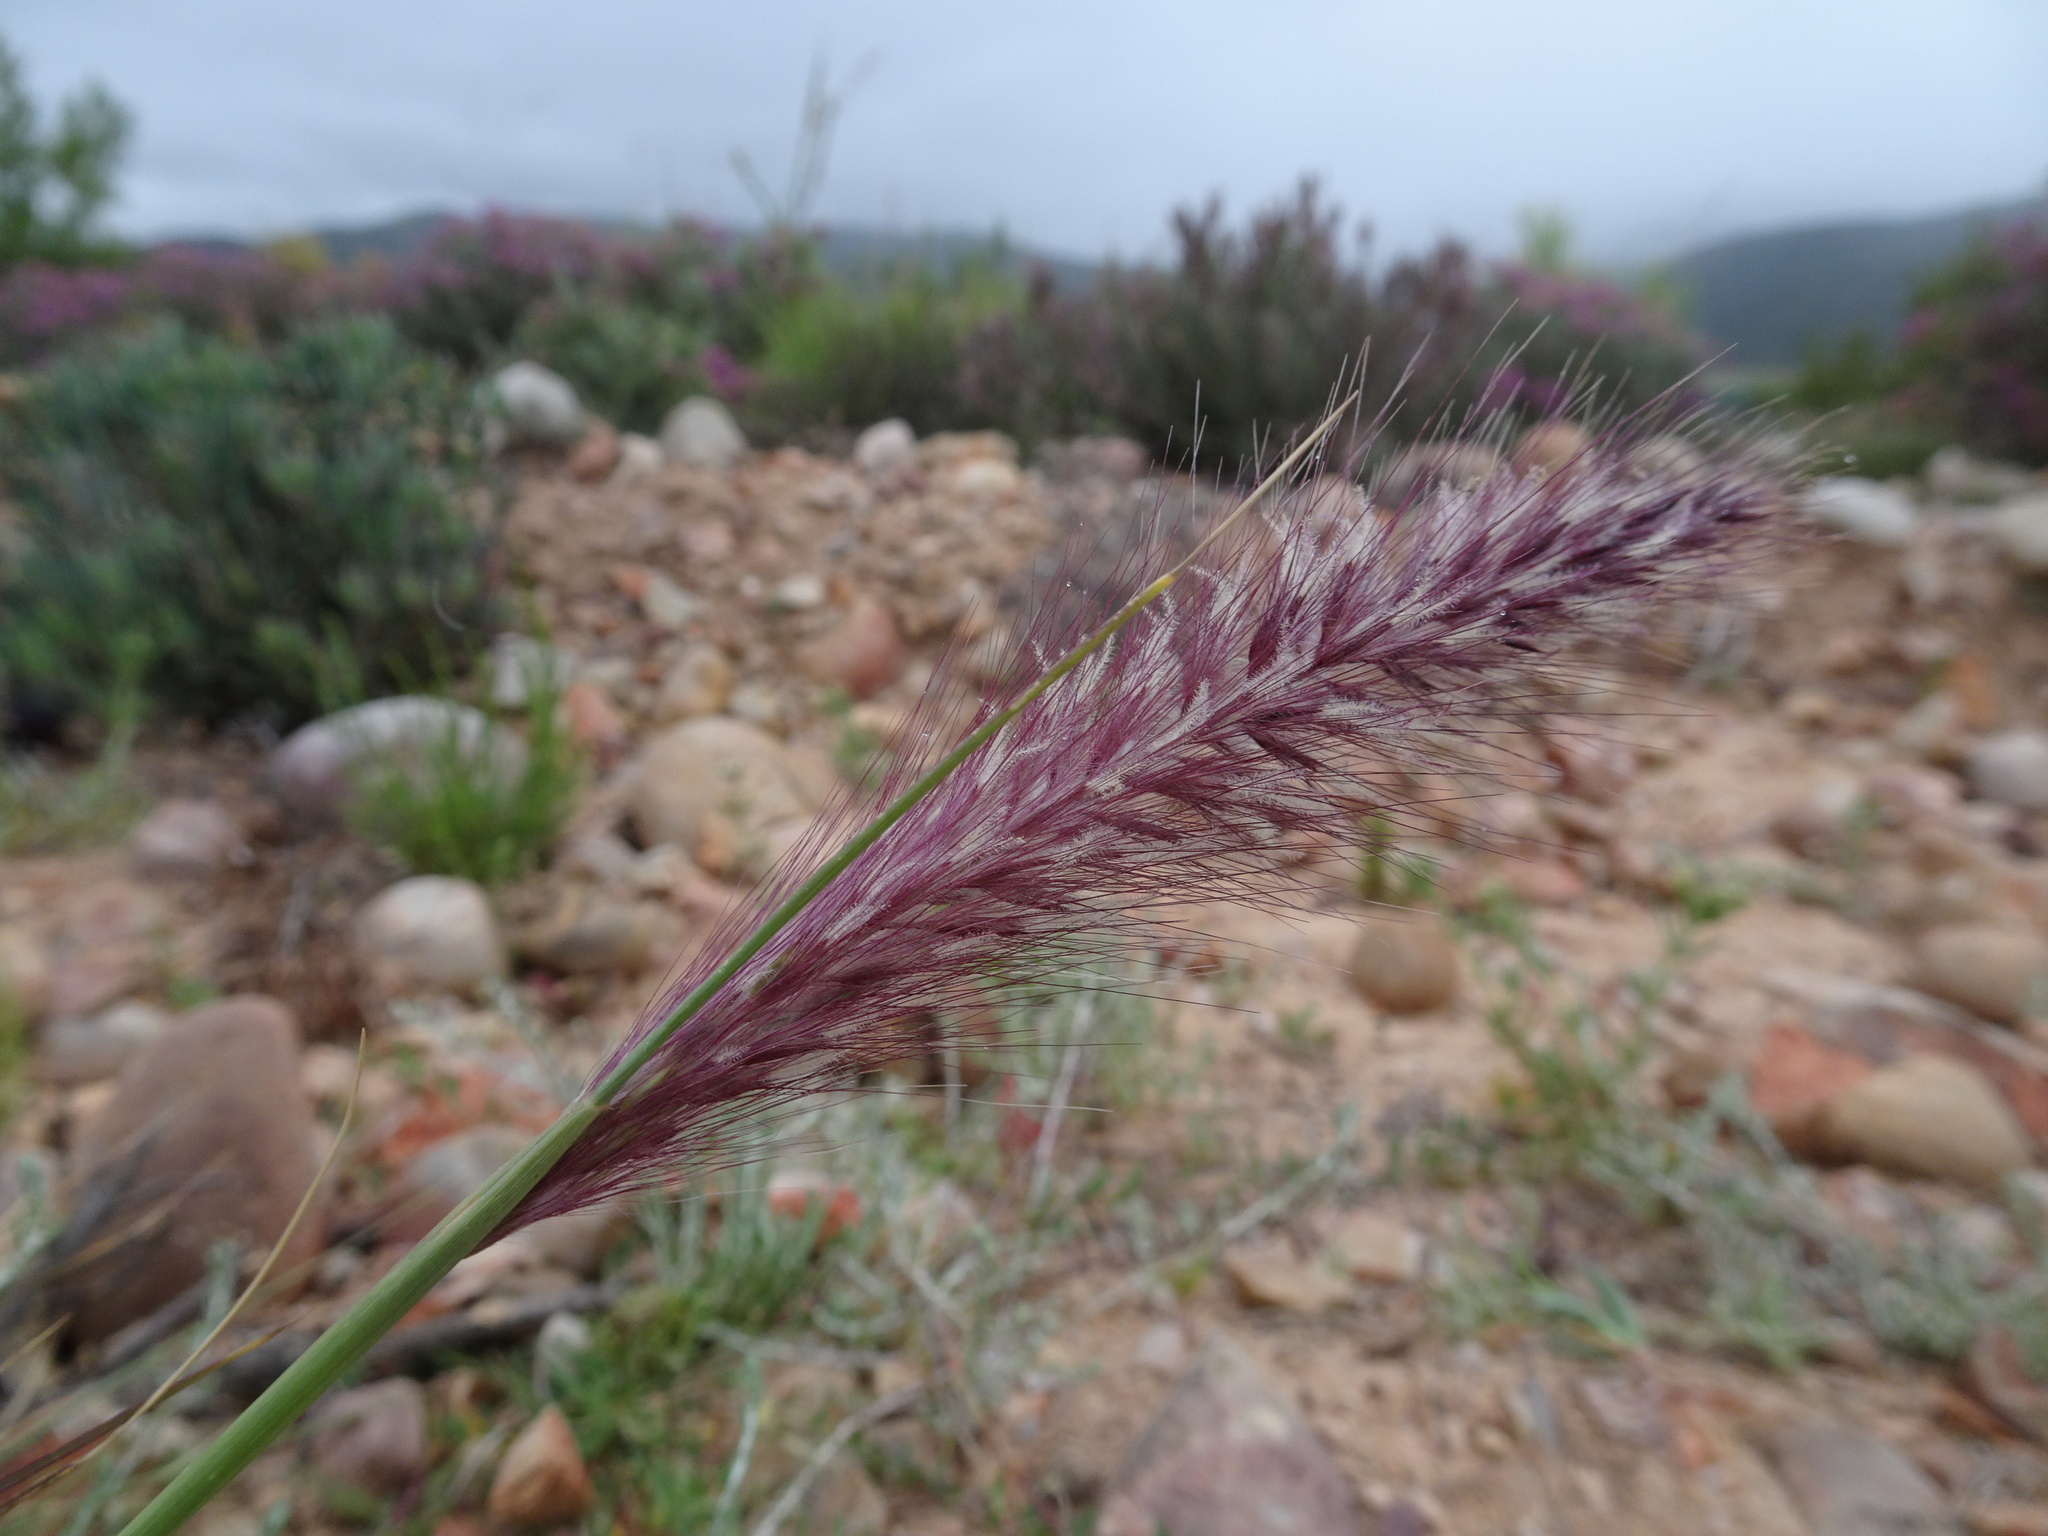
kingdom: Plantae
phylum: Tracheophyta
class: Liliopsida
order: Poales
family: Poaceae
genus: Cenchrus
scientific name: Cenchrus setaceus
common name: Crimson fountaingrass
